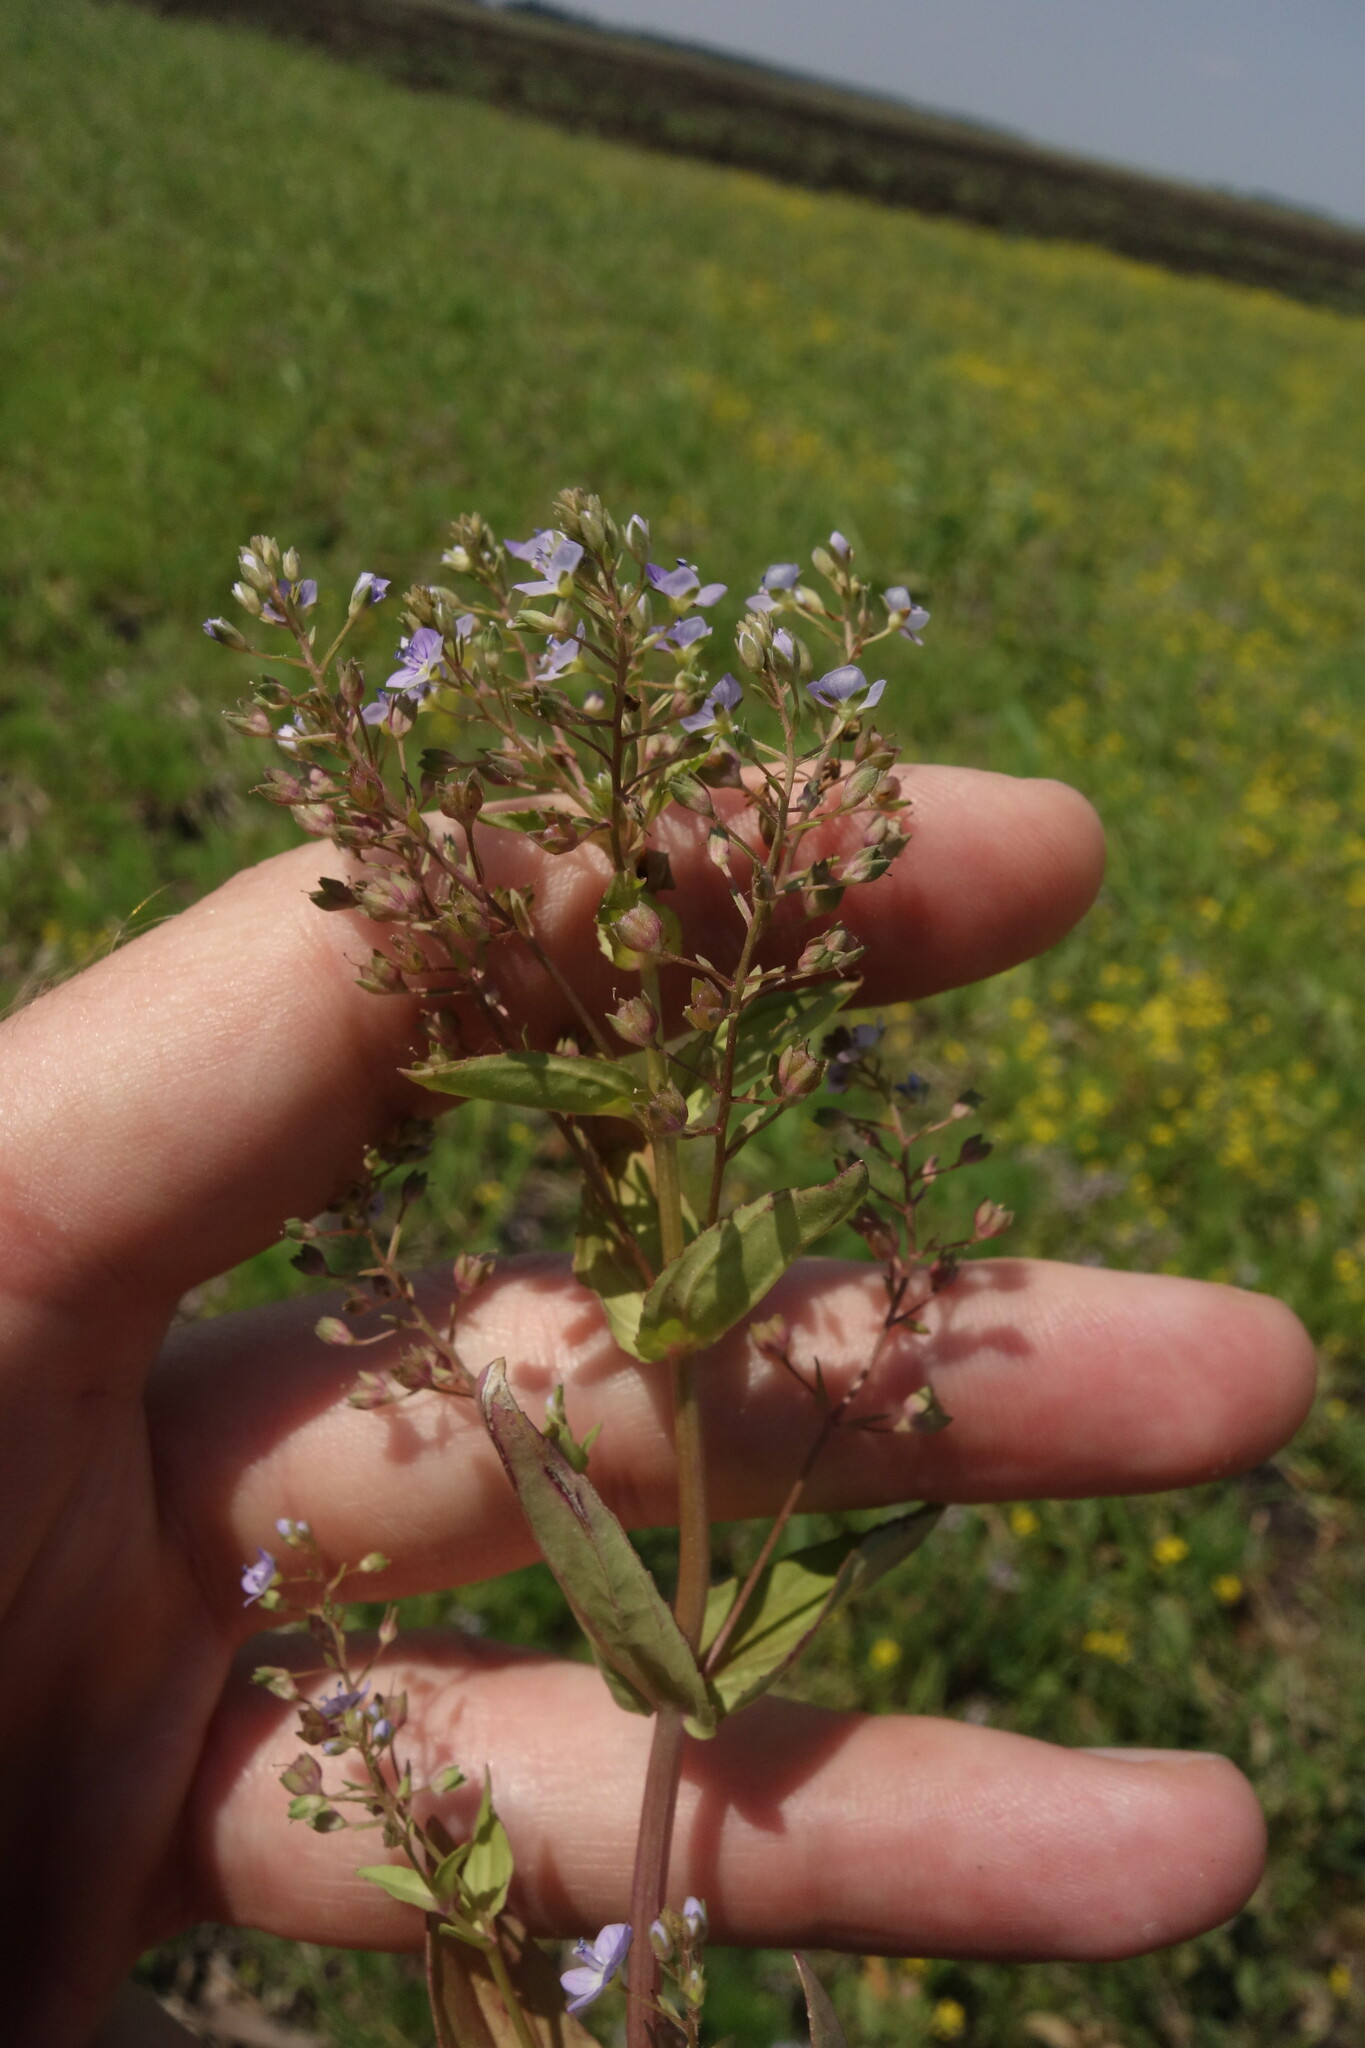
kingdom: Plantae
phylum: Tracheophyta
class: Magnoliopsida
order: Lamiales
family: Plantaginaceae
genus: Veronica
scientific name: Veronica anagallis-aquatica
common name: Water speedwell
